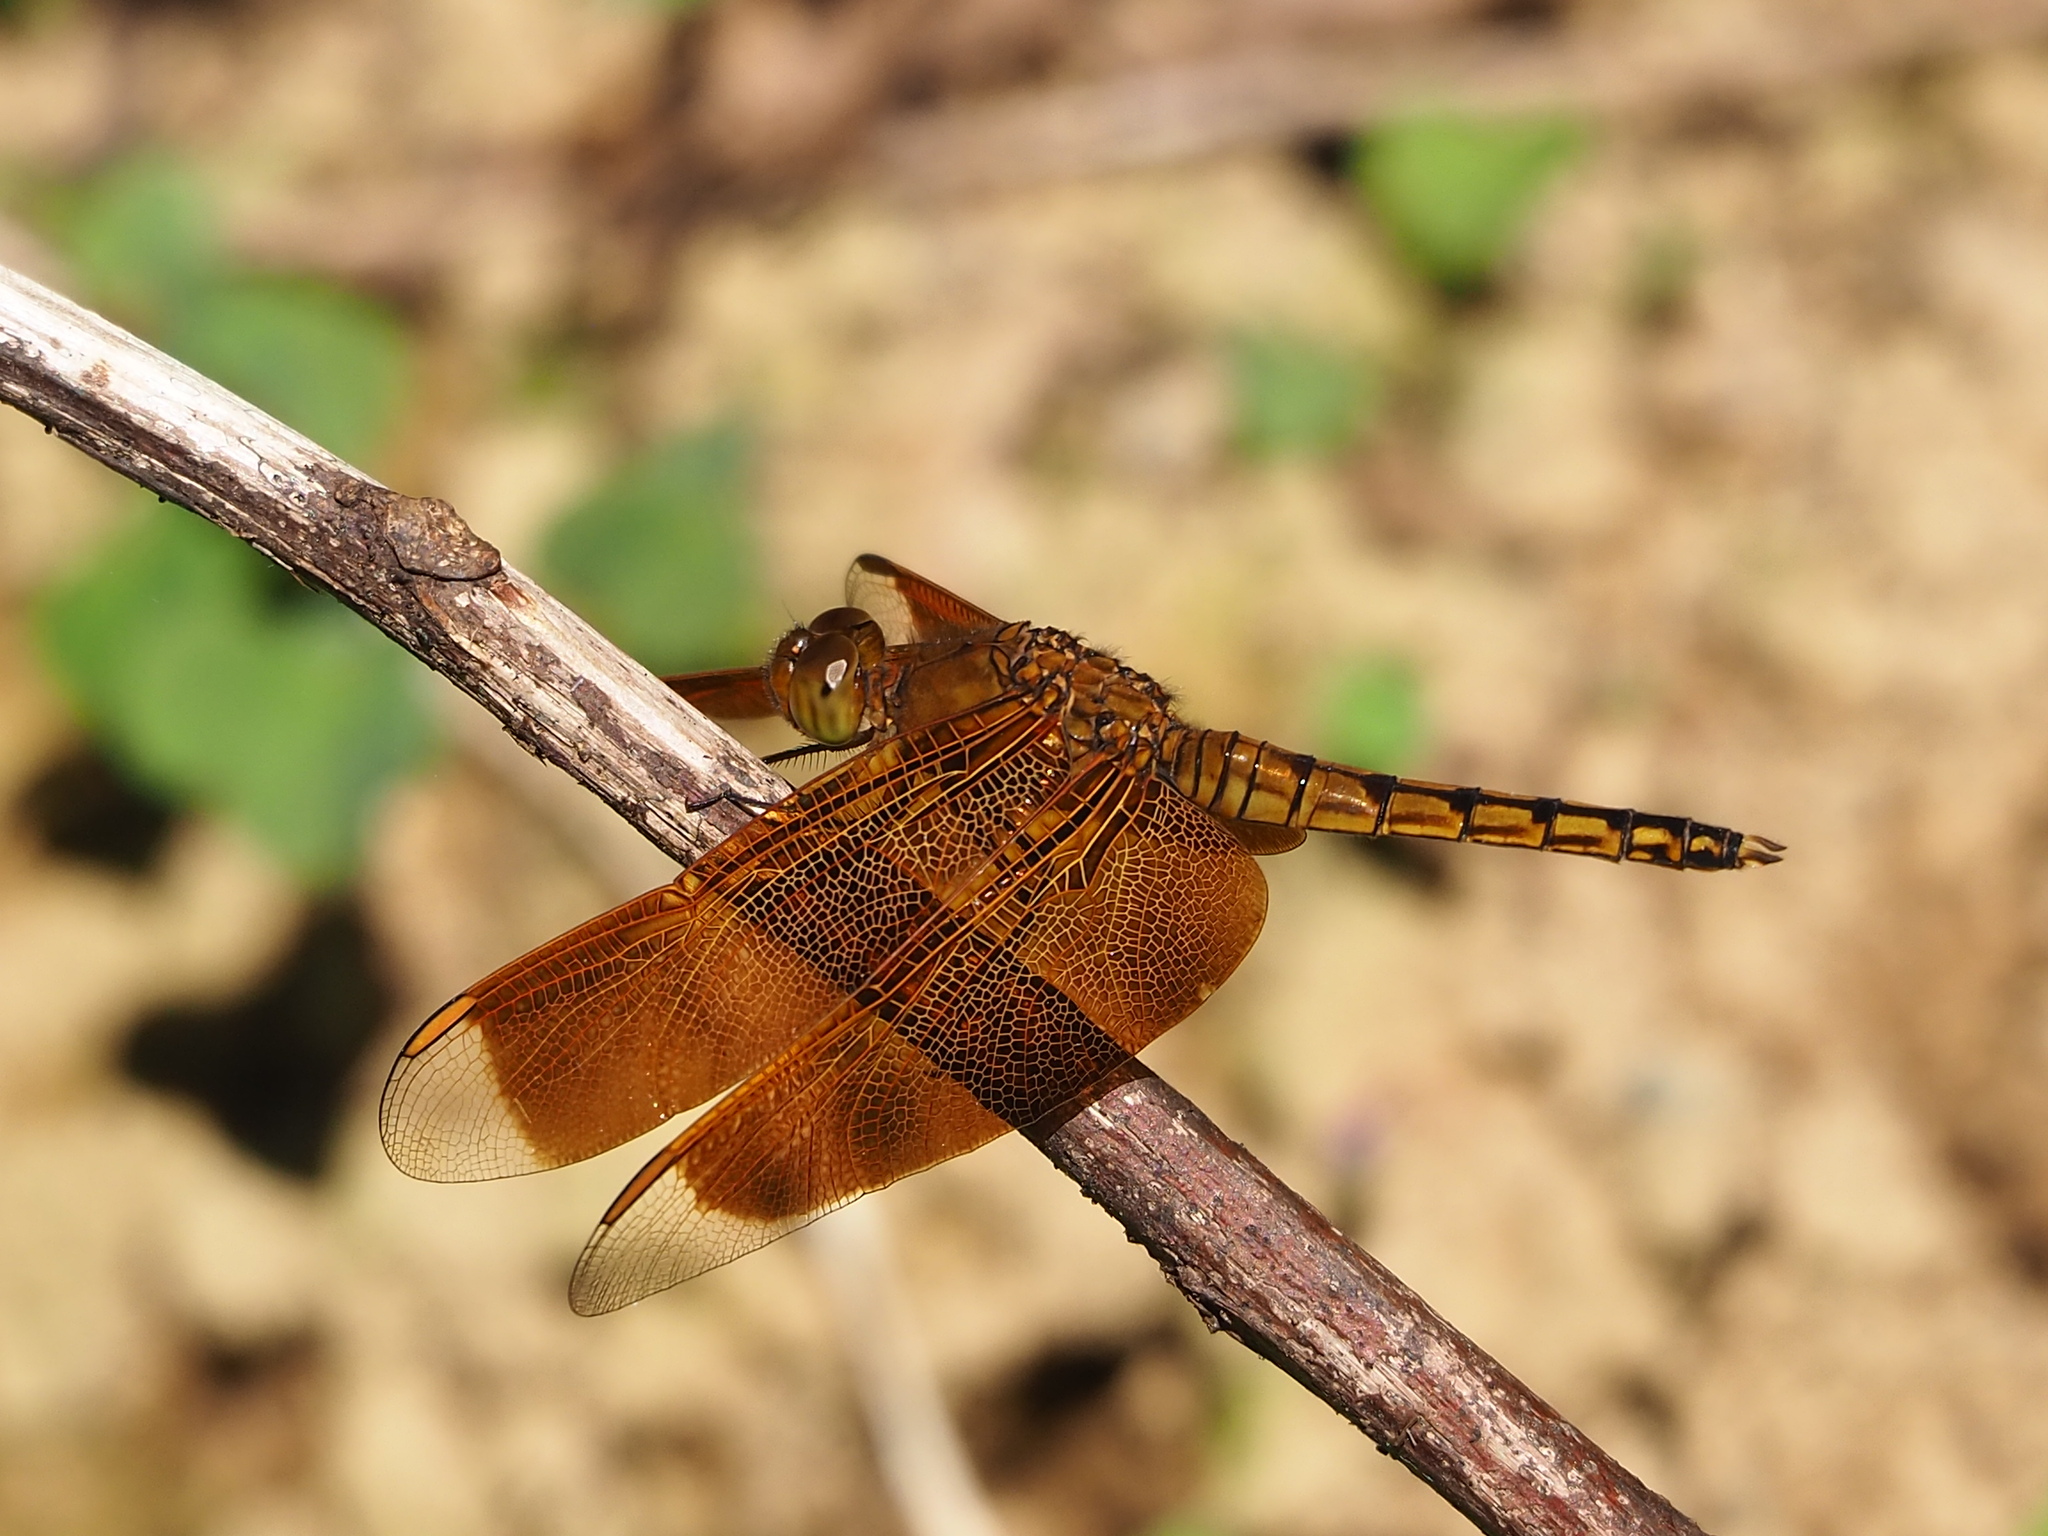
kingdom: Animalia
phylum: Arthropoda
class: Insecta
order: Odonata
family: Libellulidae
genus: Neurothemis
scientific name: Neurothemis taiwanensis
